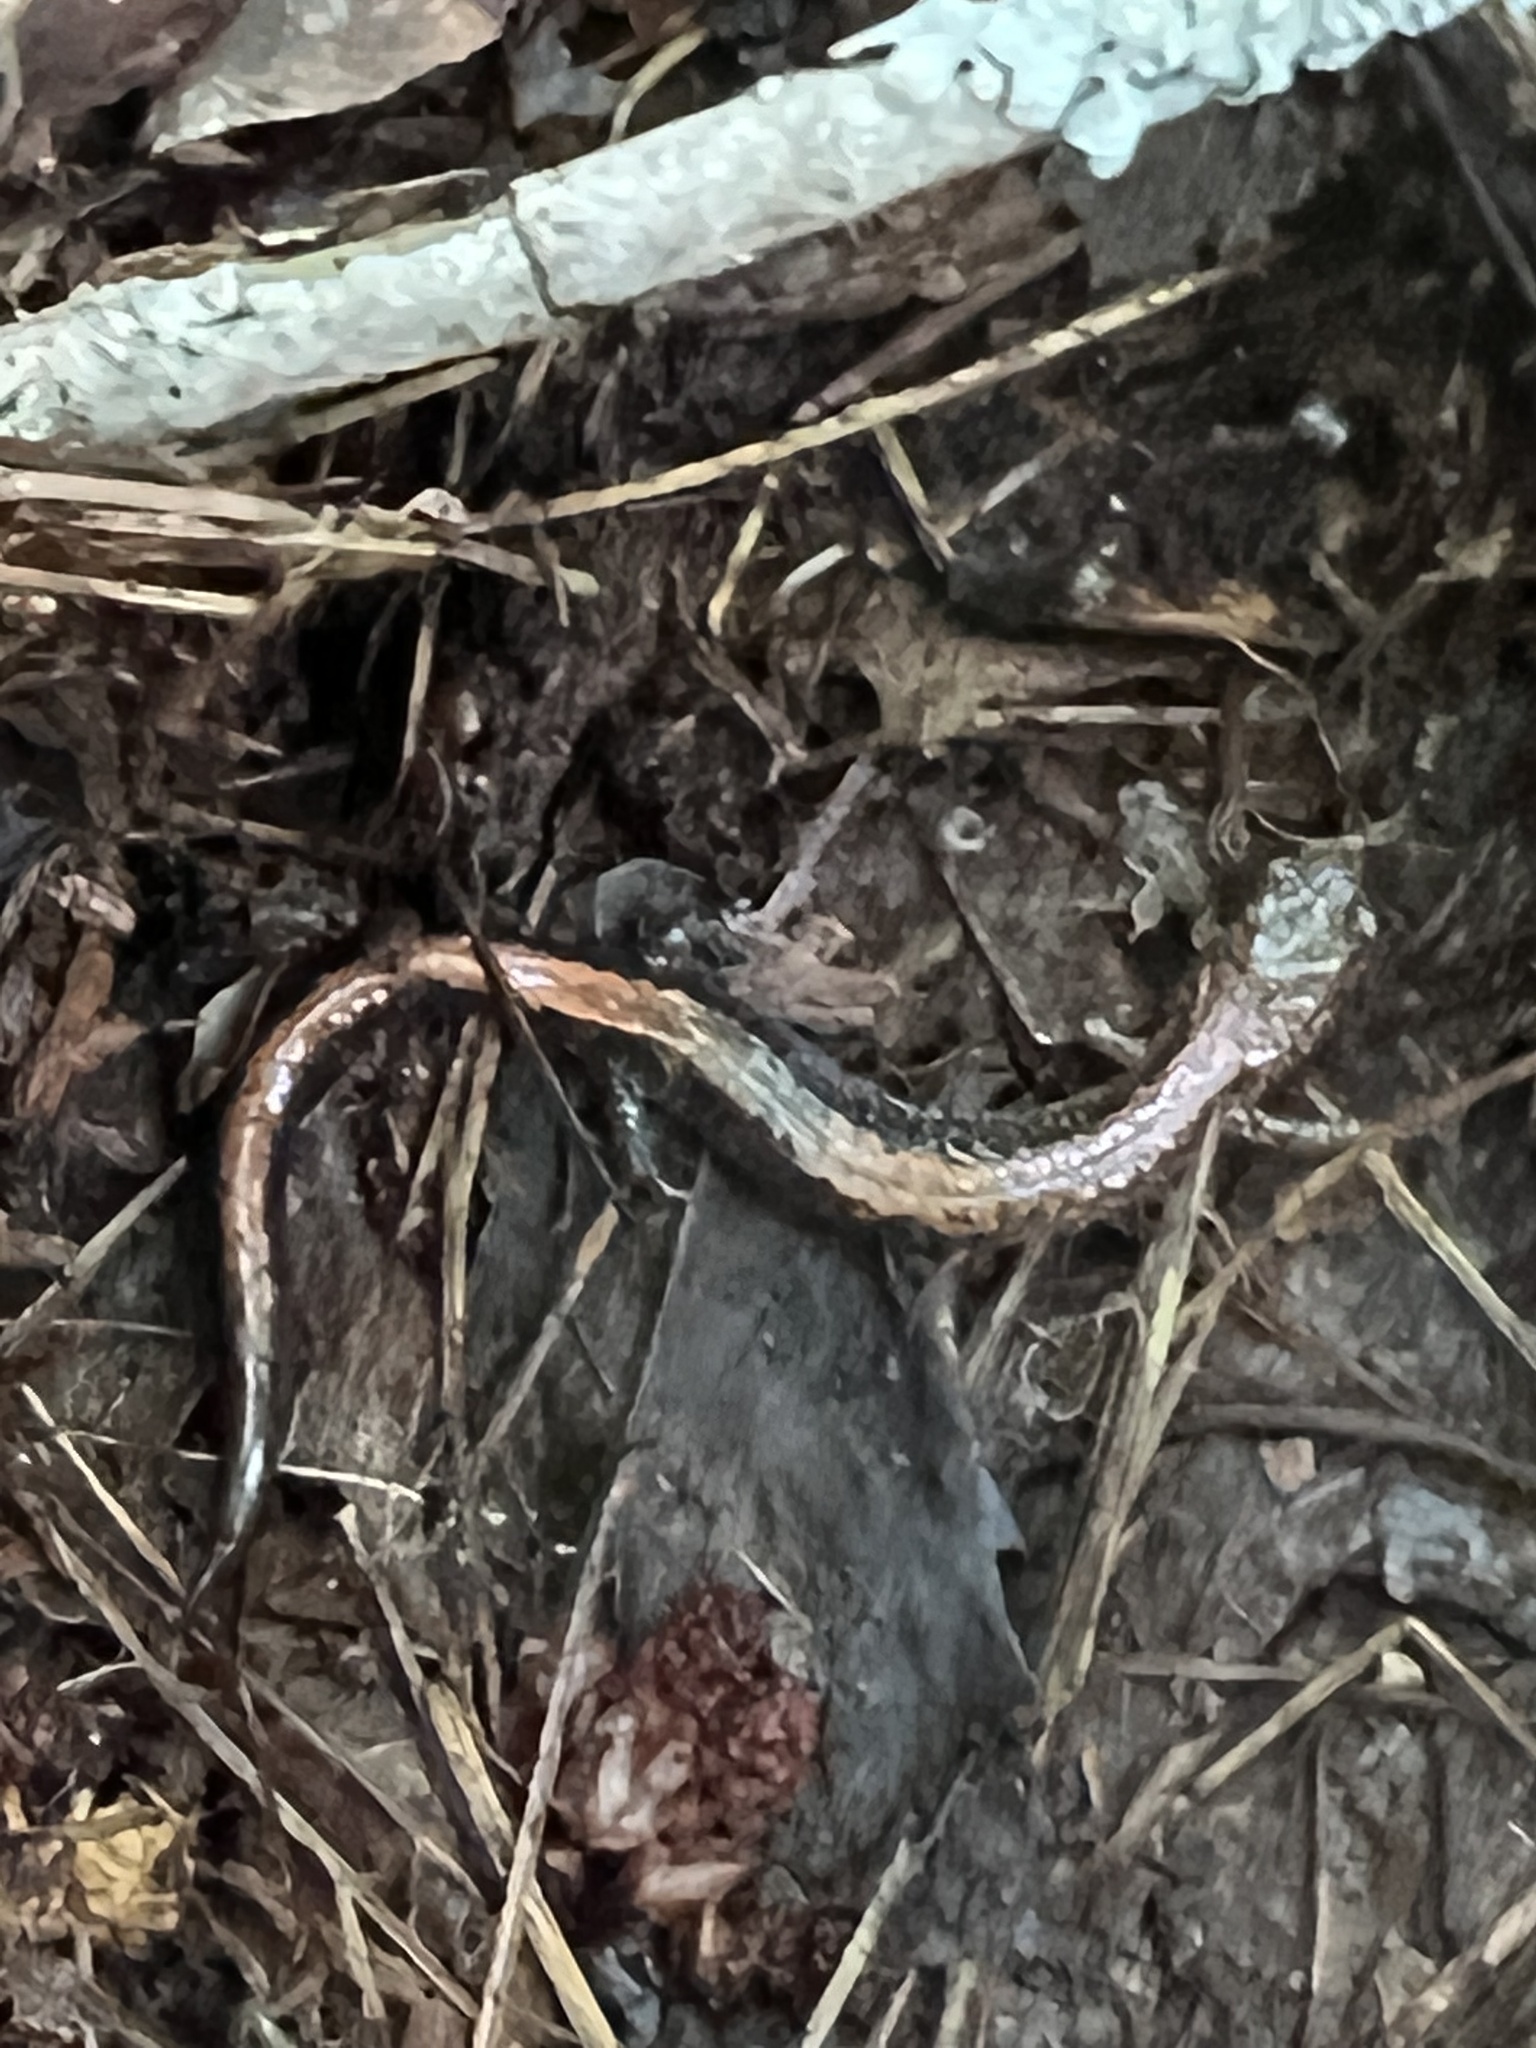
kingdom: Animalia
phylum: Chordata
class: Amphibia
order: Caudata
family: Plethodontidae
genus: Plethodon
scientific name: Plethodon cinereus
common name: Redback salamander
